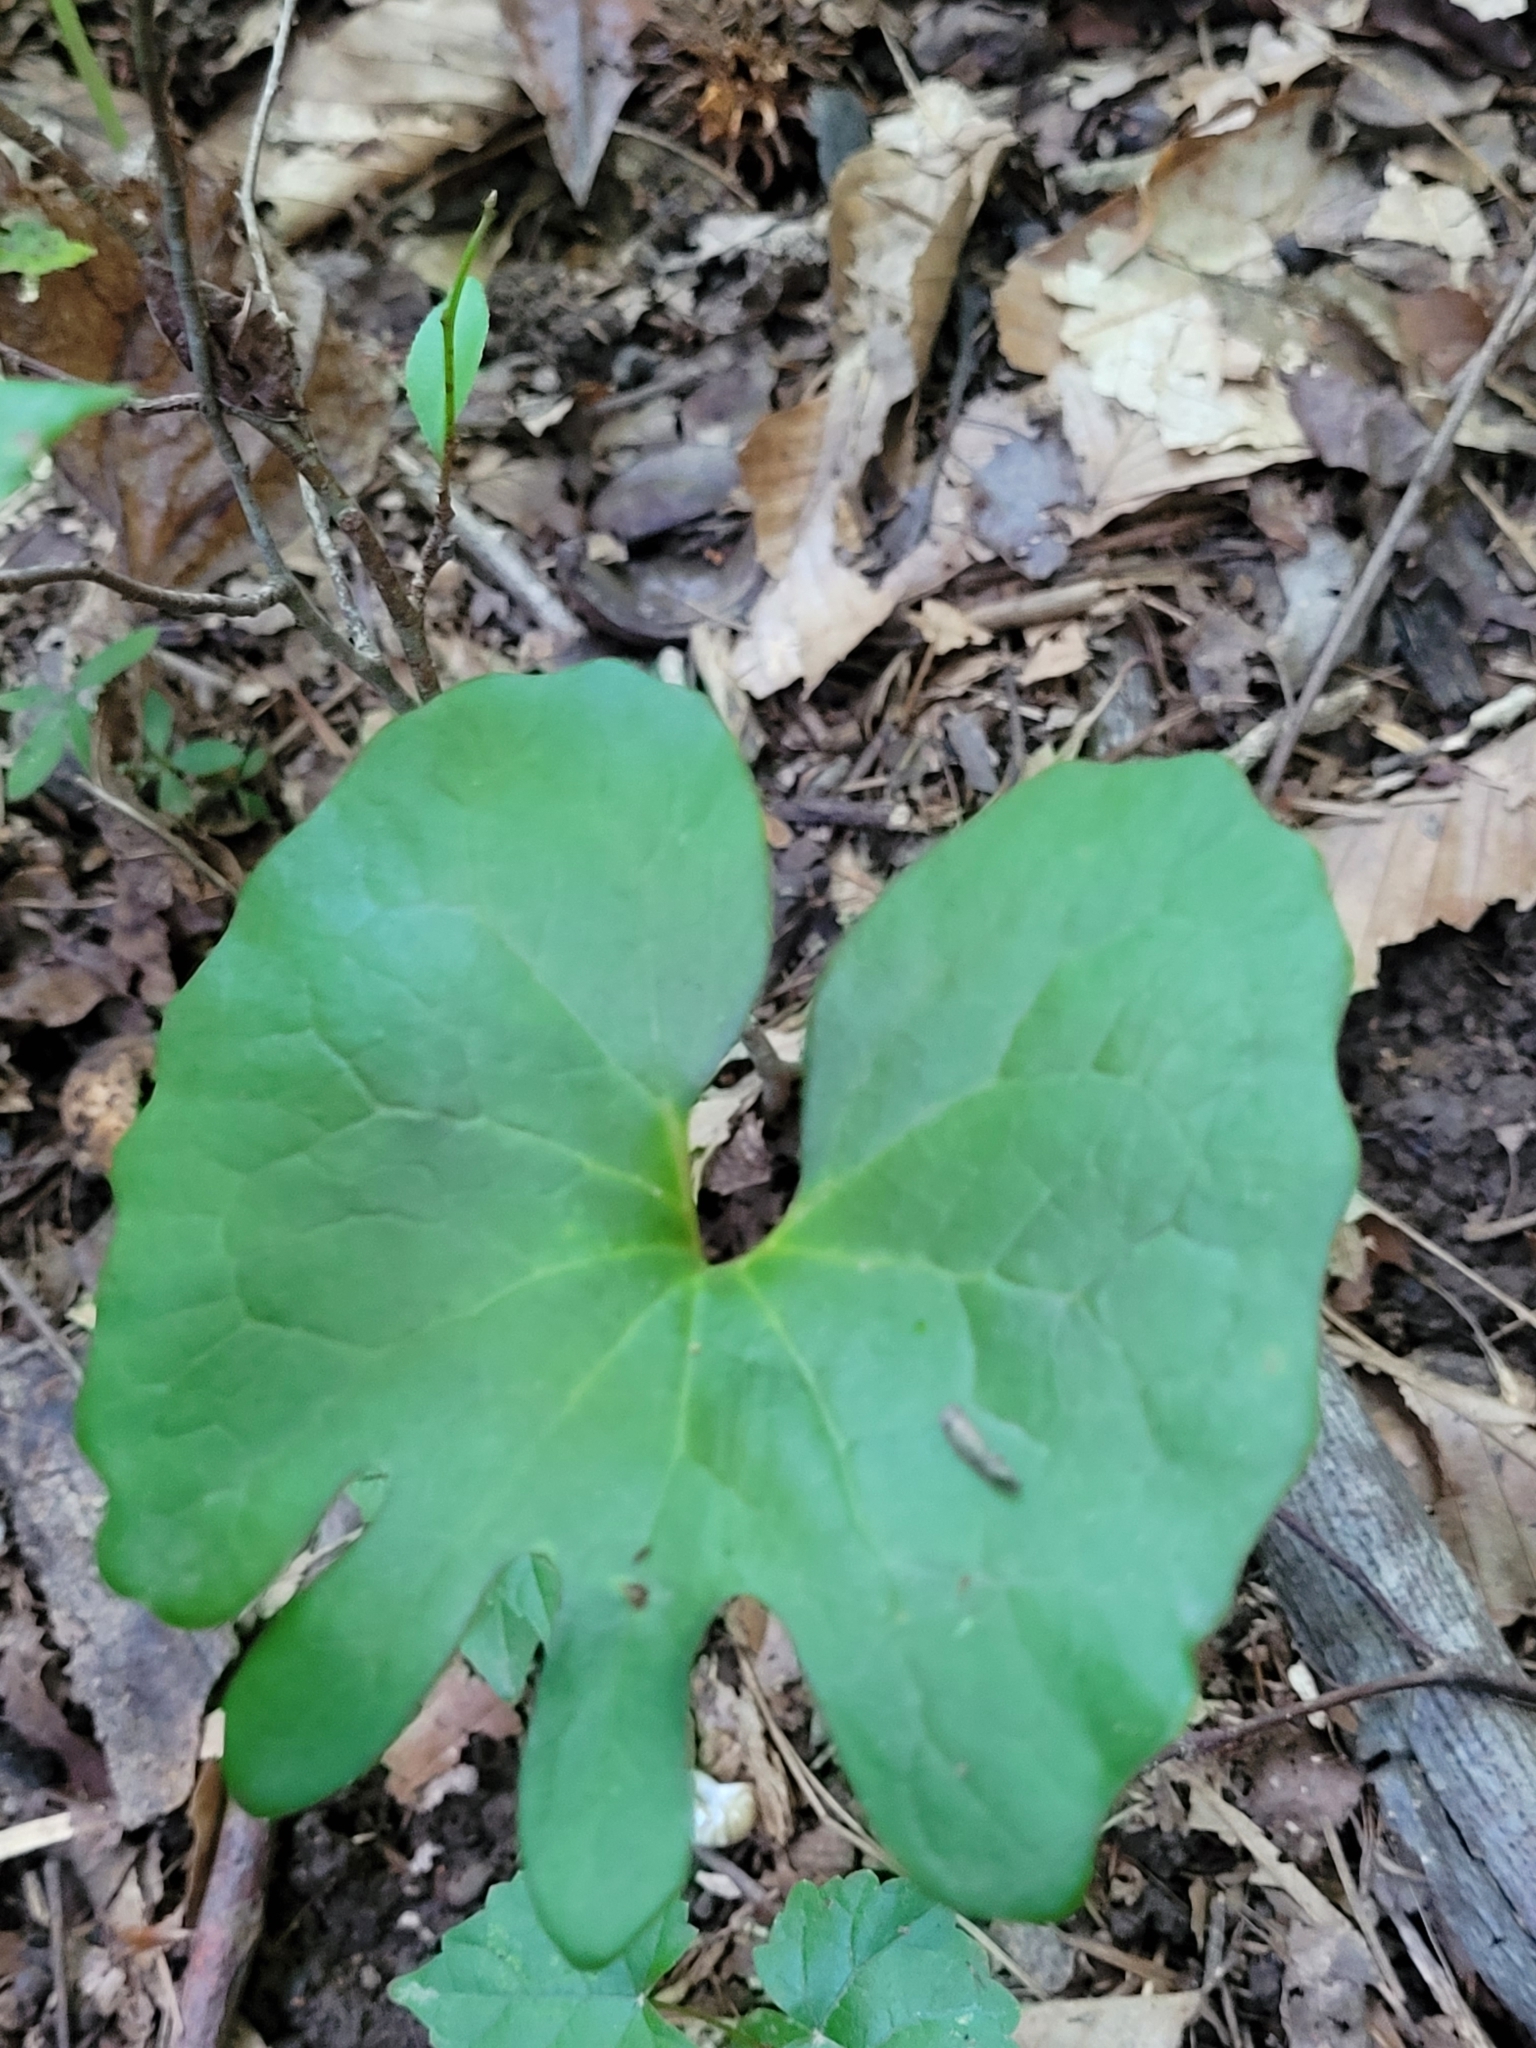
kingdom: Plantae
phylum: Tracheophyta
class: Magnoliopsida
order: Ranunculales
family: Papaveraceae
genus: Sanguinaria
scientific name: Sanguinaria canadensis
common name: Bloodroot
